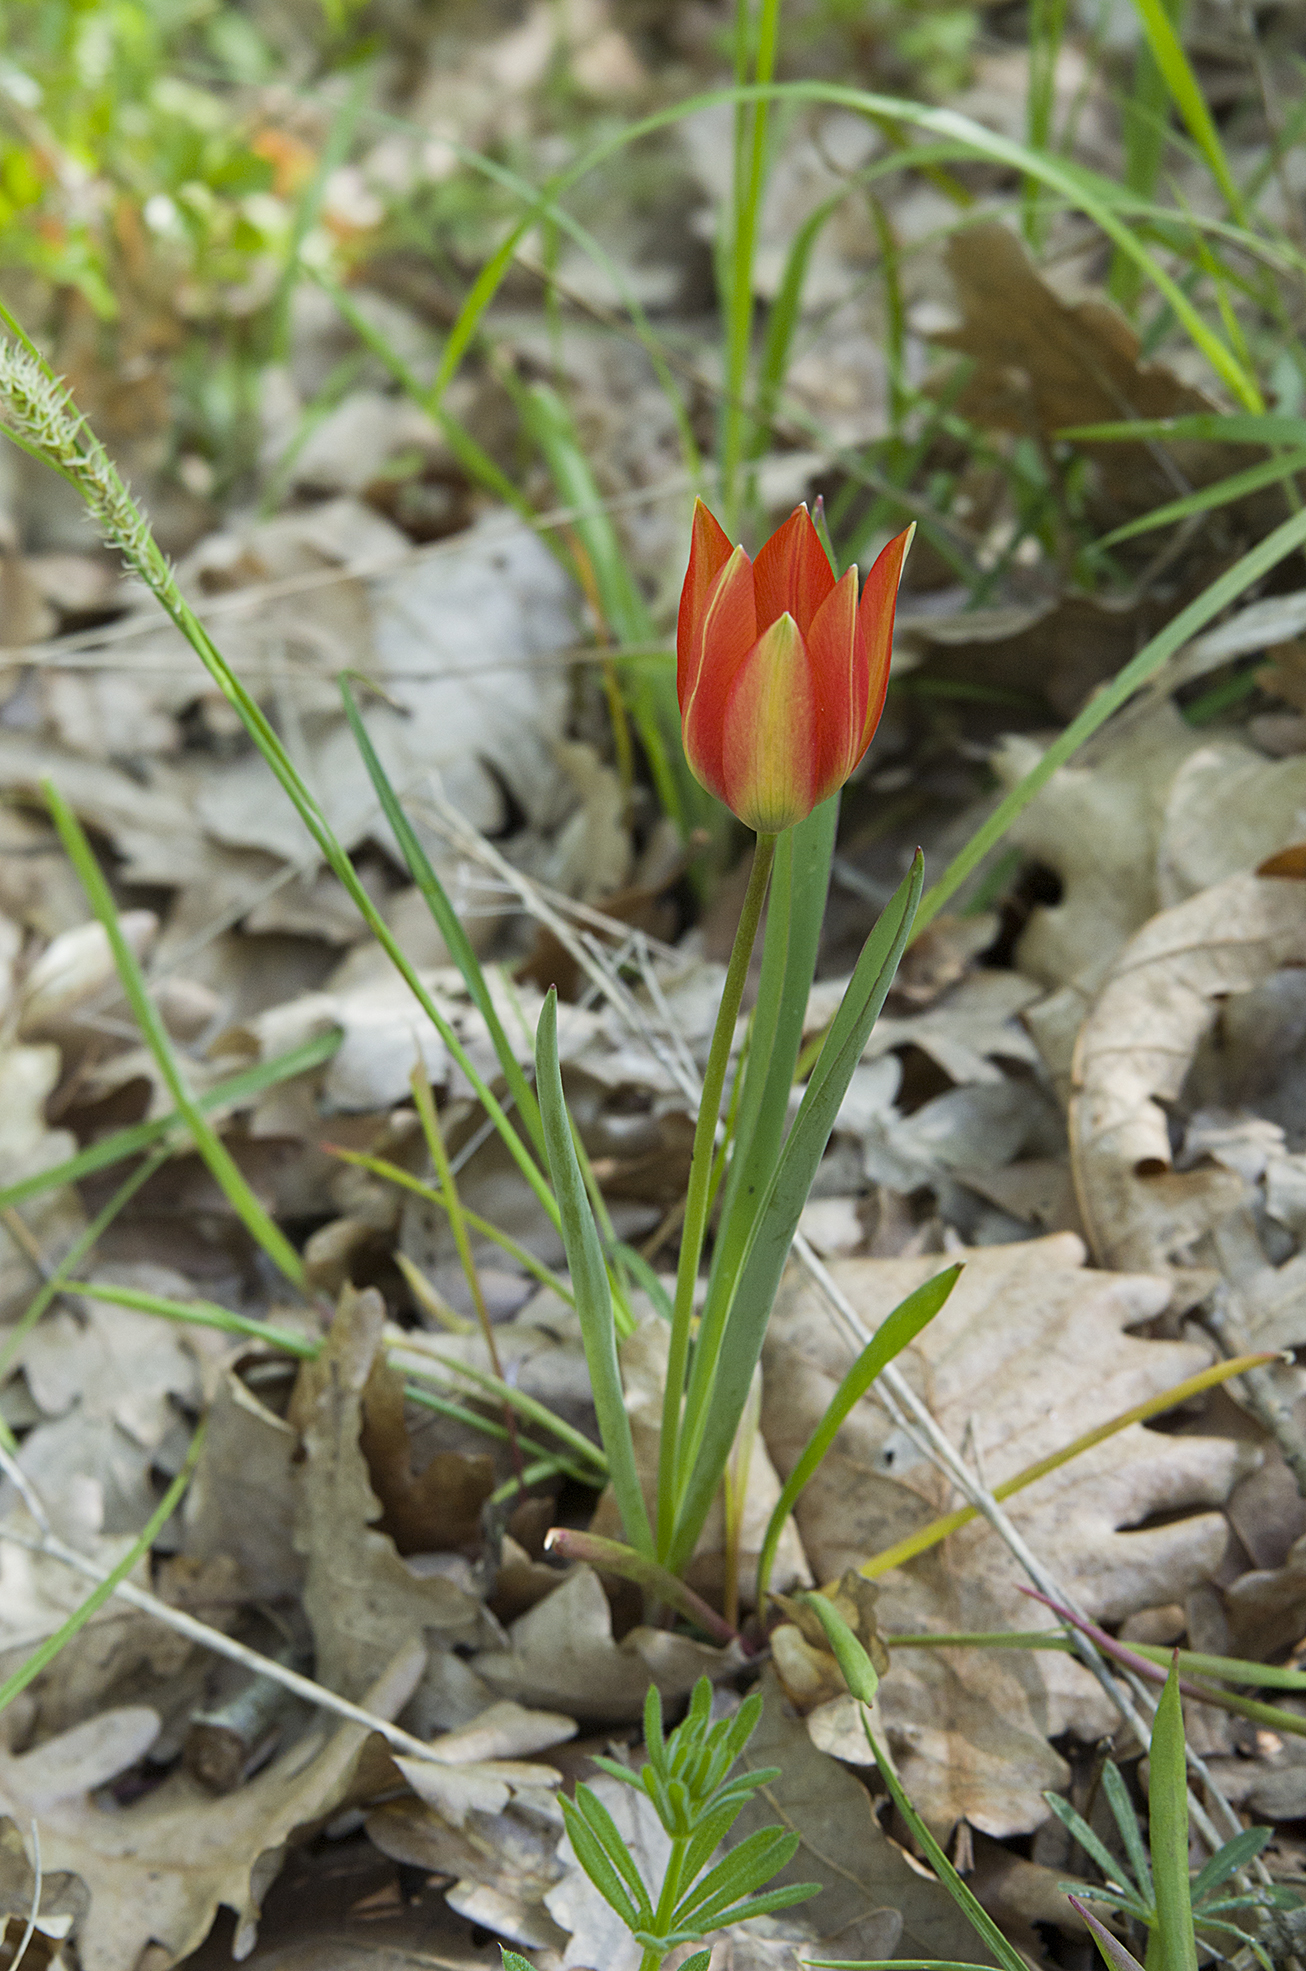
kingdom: Plantae
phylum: Tracheophyta
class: Liliopsida
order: Liliales
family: Liliaceae
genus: Tulipa
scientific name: Tulipa orphanidea
